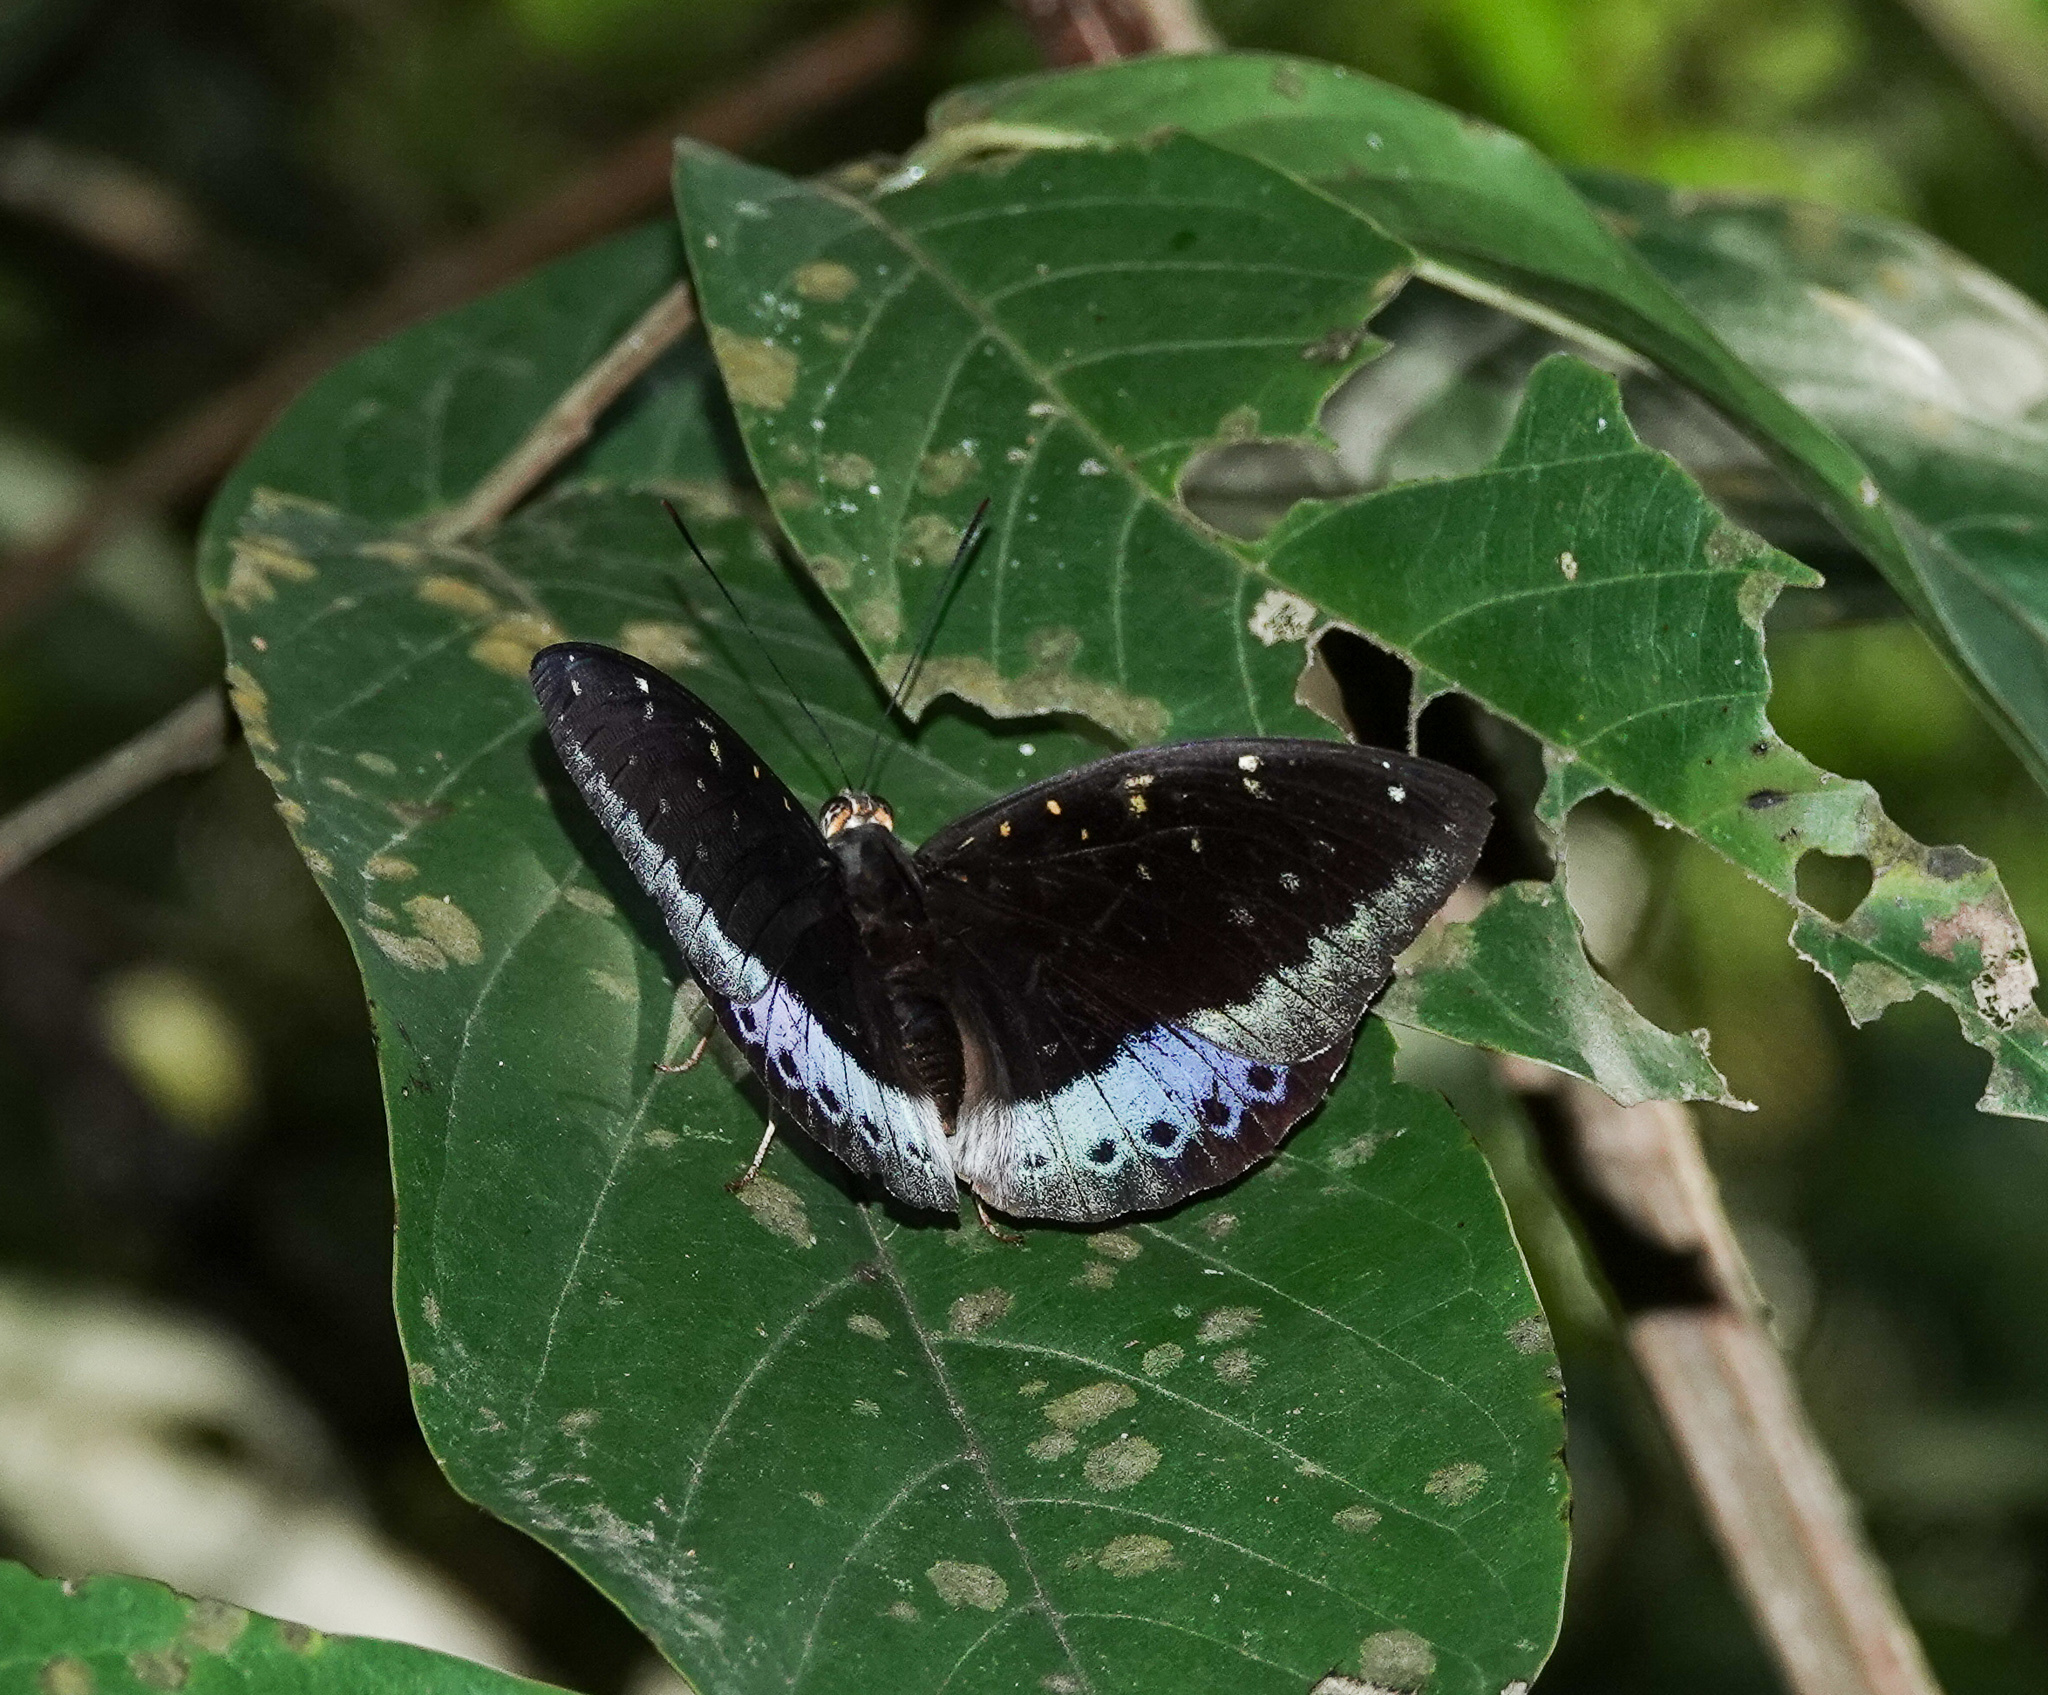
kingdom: Animalia
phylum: Arthropoda
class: Insecta
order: Lepidoptera
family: Nymphalidae
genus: Lexias
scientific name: Lexias dirtea
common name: Black-tipped archduke
